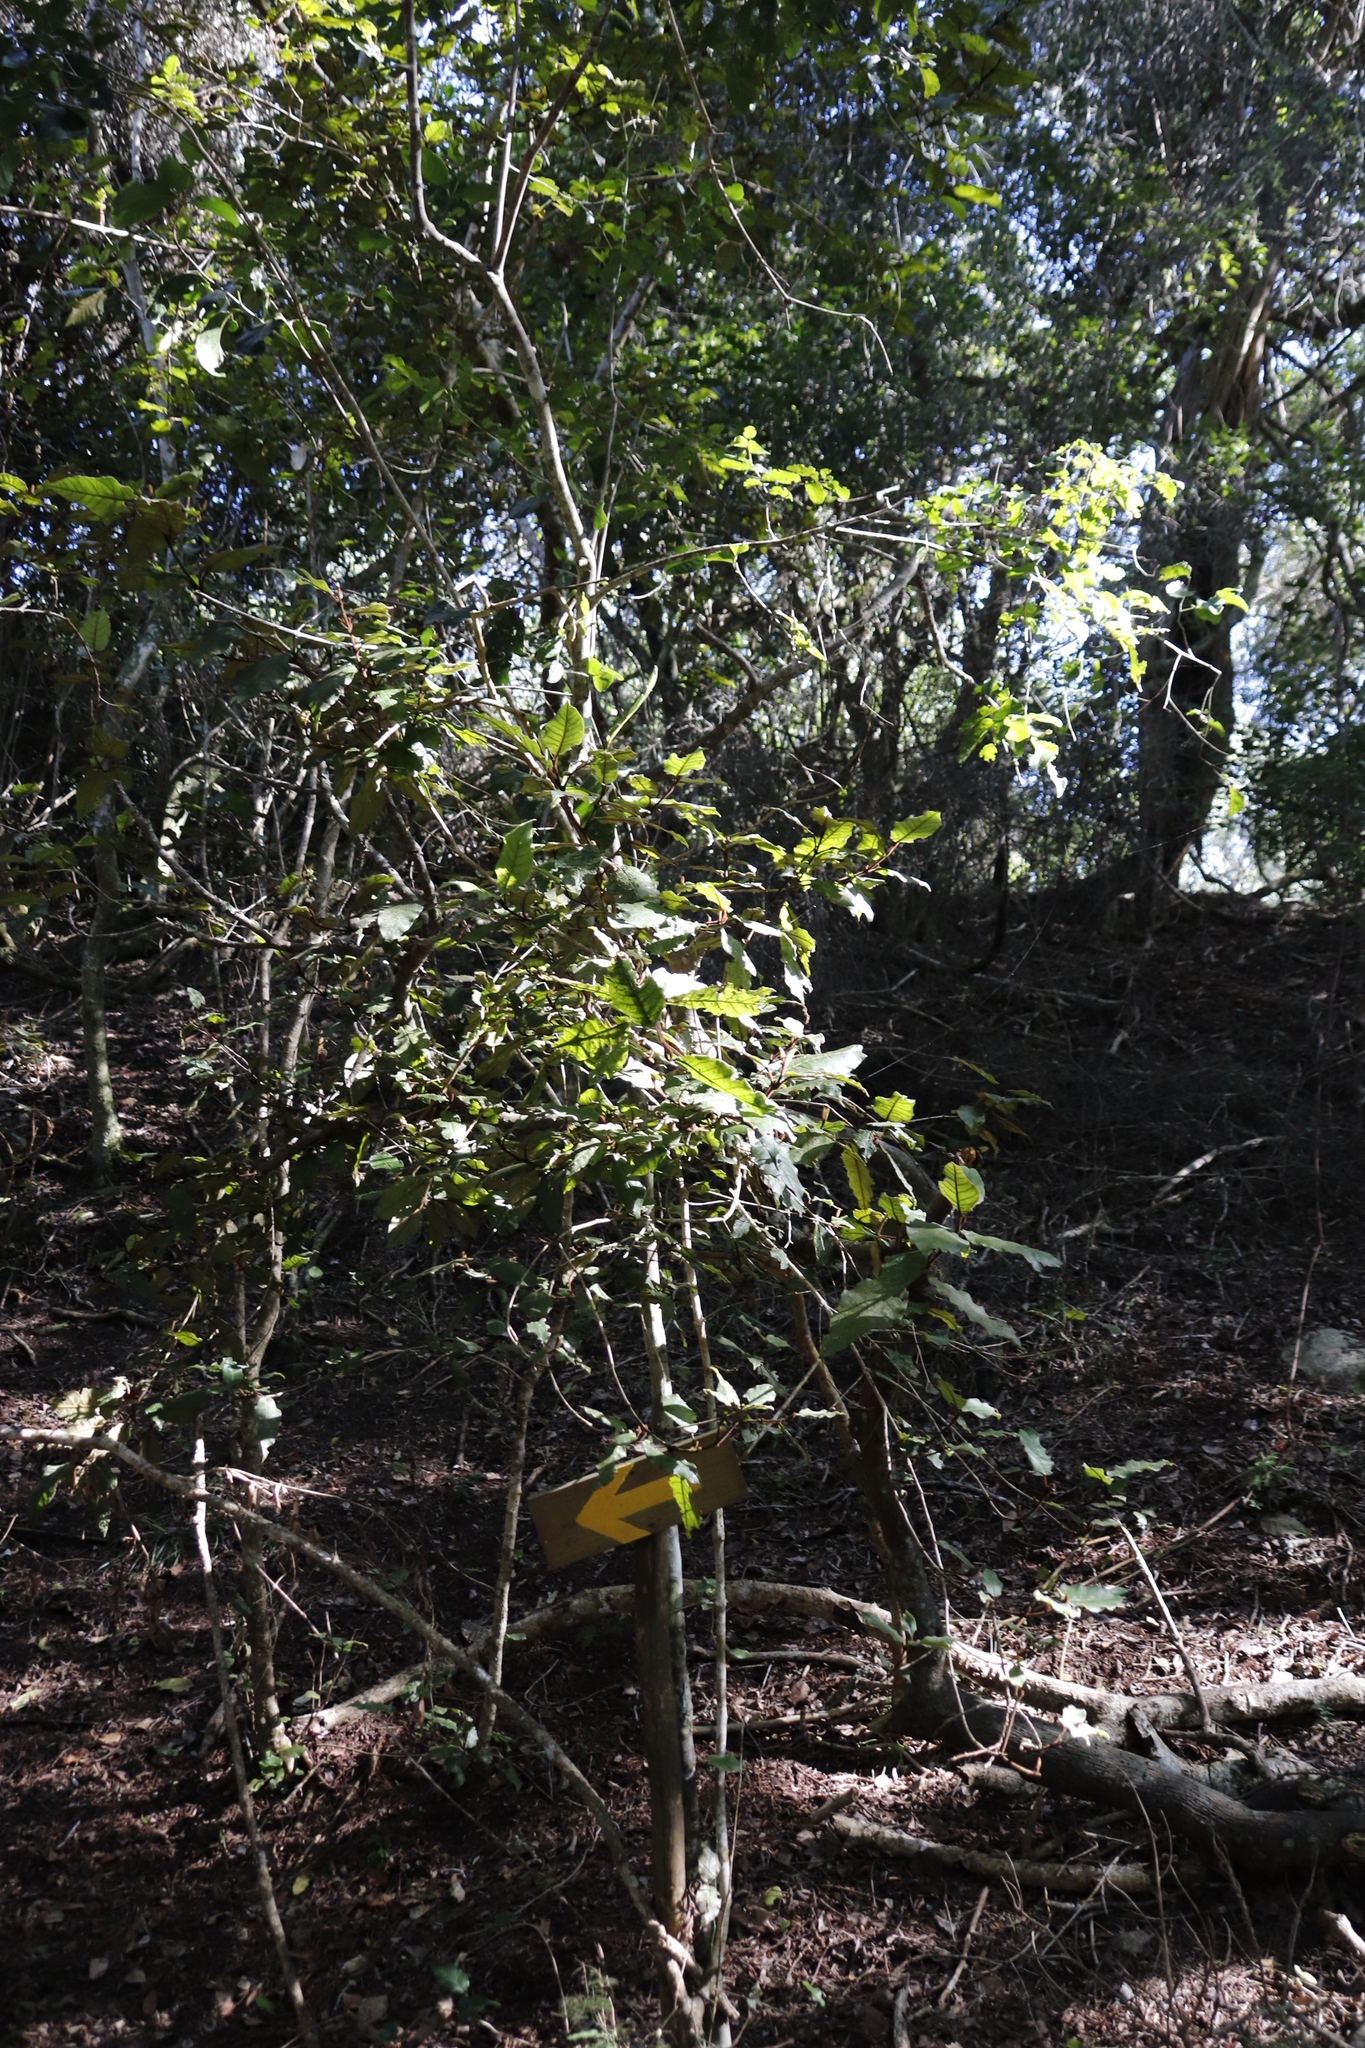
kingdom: Plantae
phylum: Tracheophyta
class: Magnoliopsida
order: Saxifragales
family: Hamamelidaceae
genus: Trichocladus
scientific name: Trichocladus crinitus
